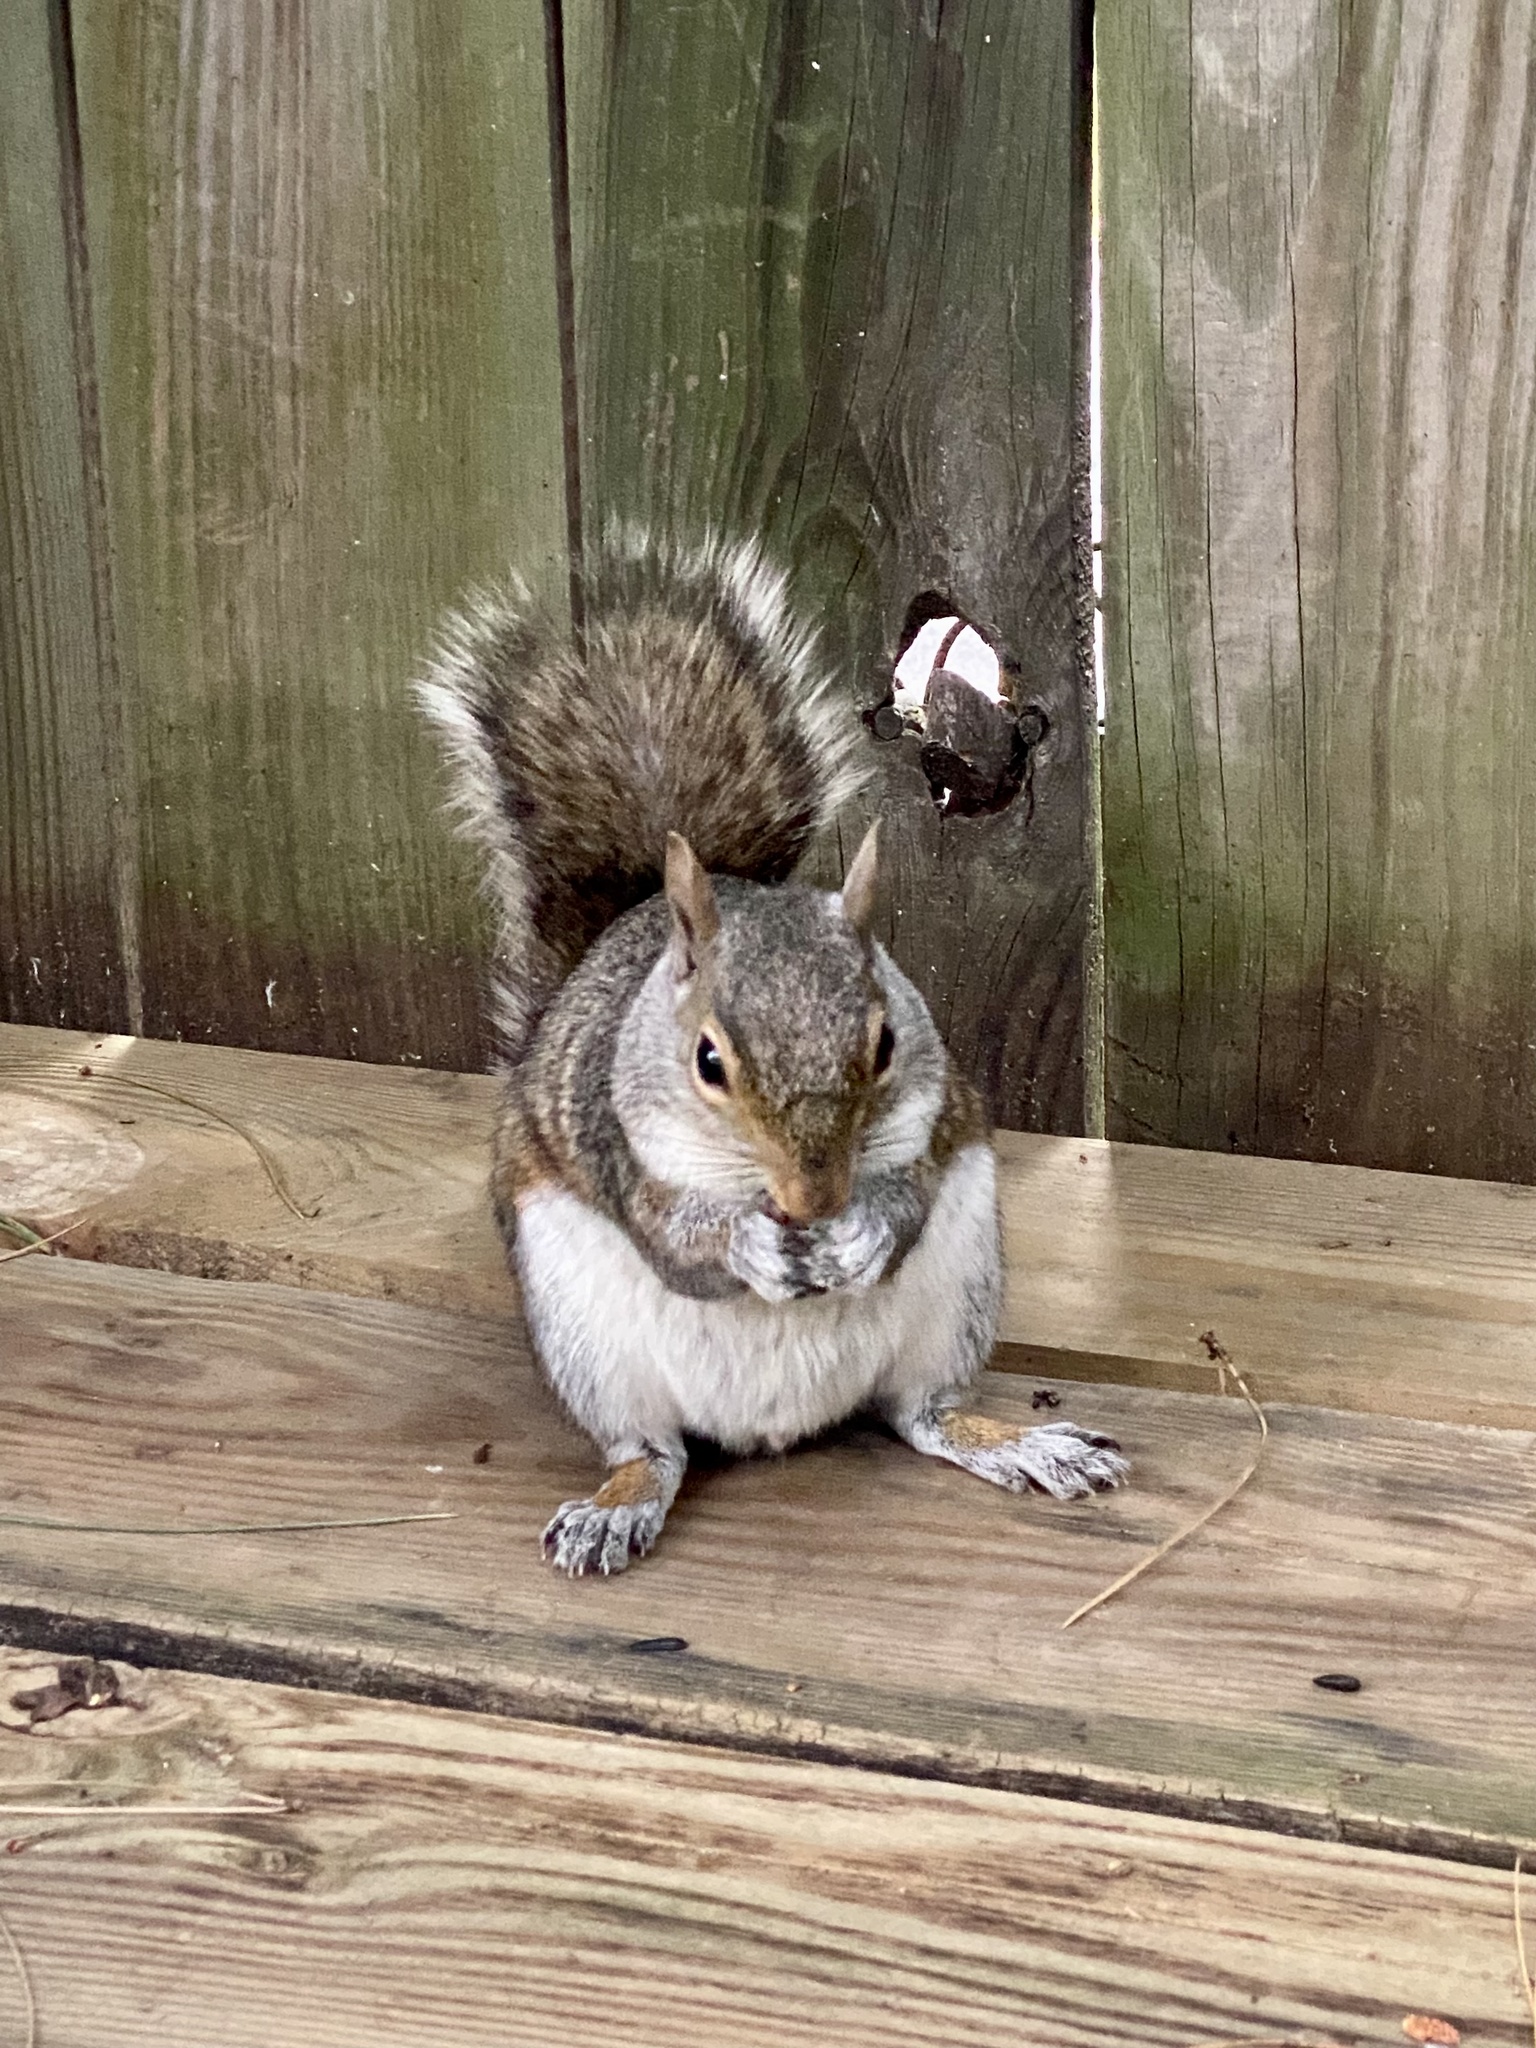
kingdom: Animalia
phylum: Chordata
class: Mammalia
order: Rodentia
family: Sciuridae
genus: Sciurus
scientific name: Sciurus carolinensis
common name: Eastern gray squirrel
